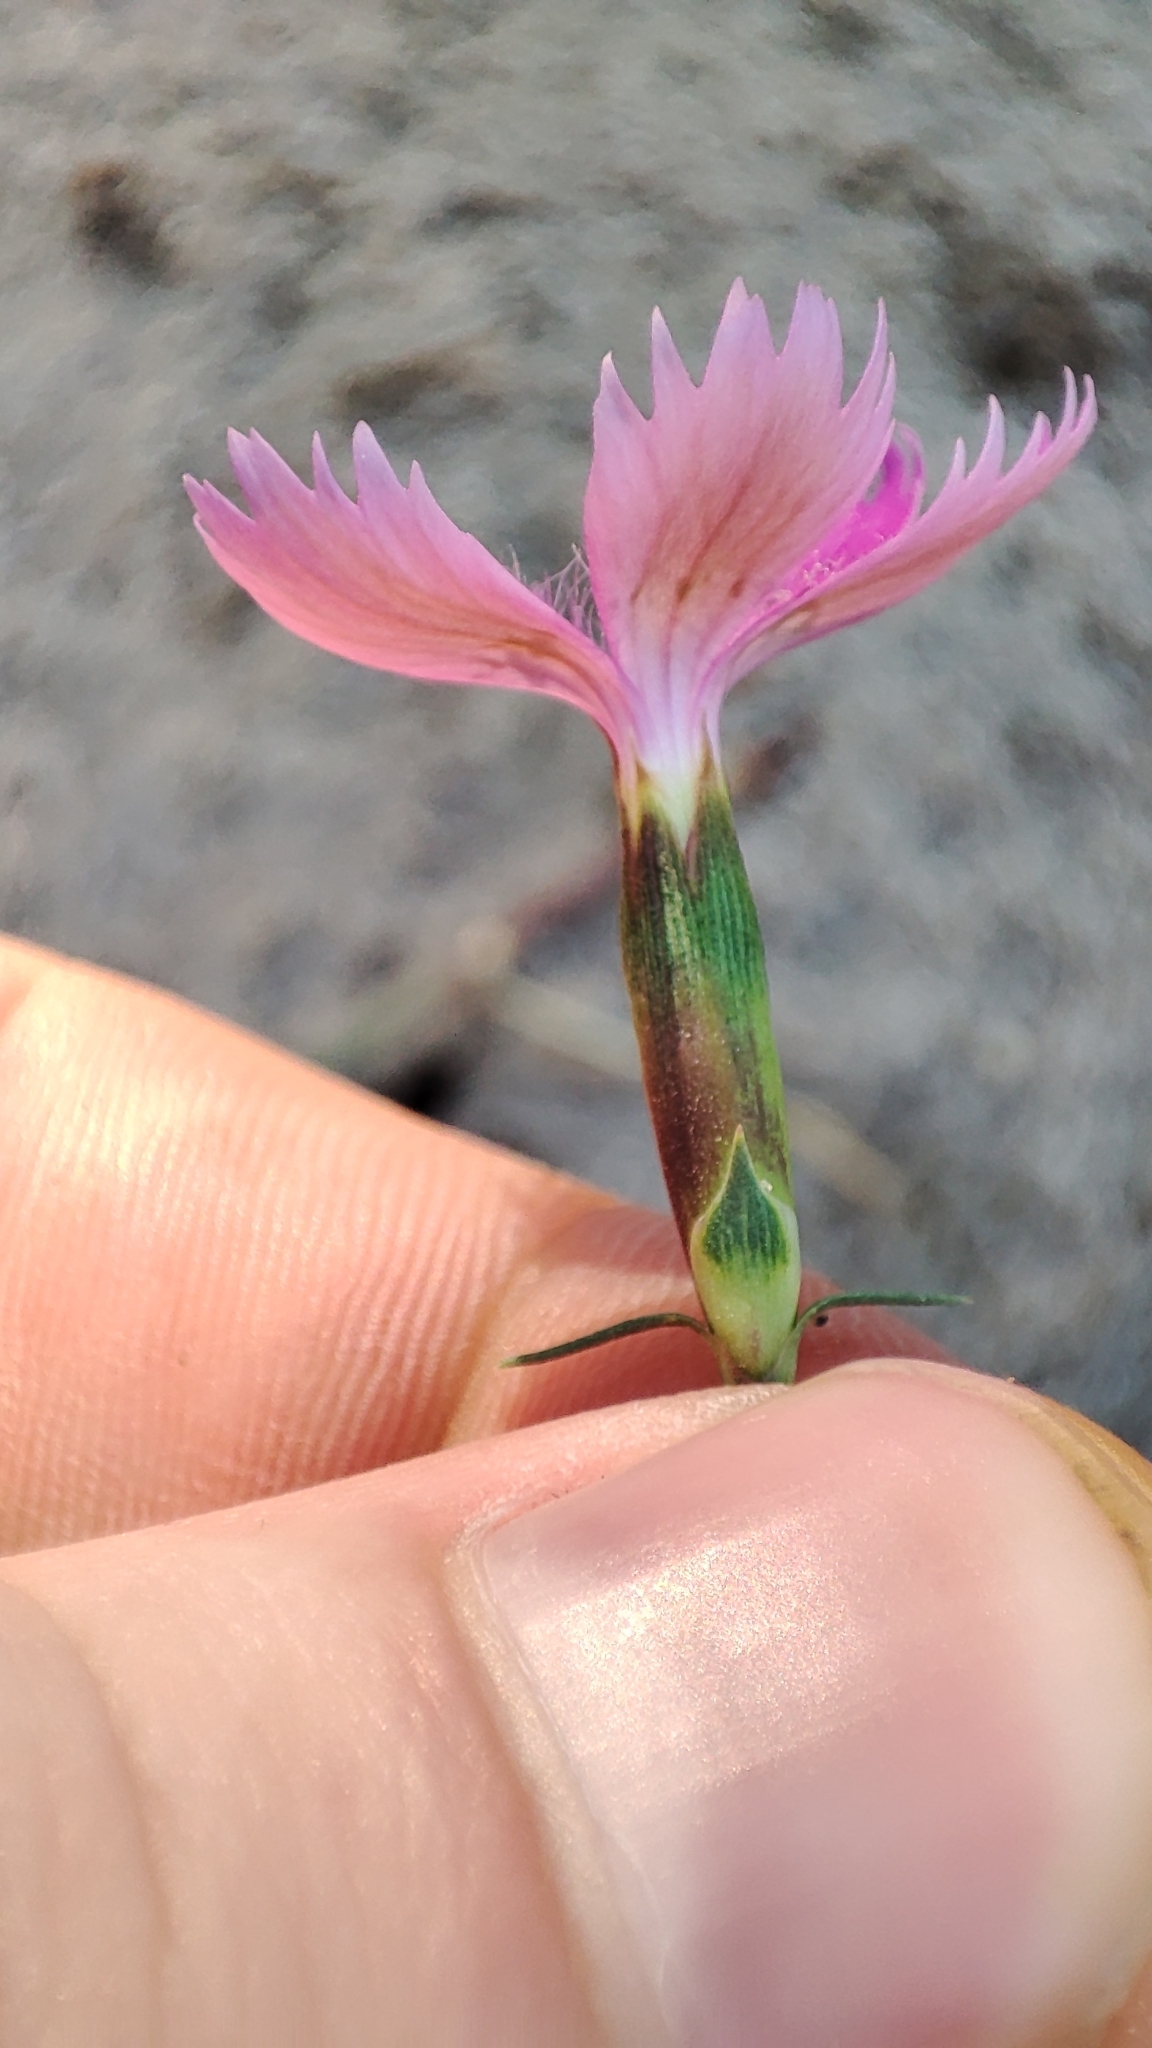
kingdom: Plantae
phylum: Tracheophyta
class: Magnoliopsida
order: Caryophyllales
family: Caryophyllaceae
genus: Dianthus
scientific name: Dianthus chinensis
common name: Rainbow pink
